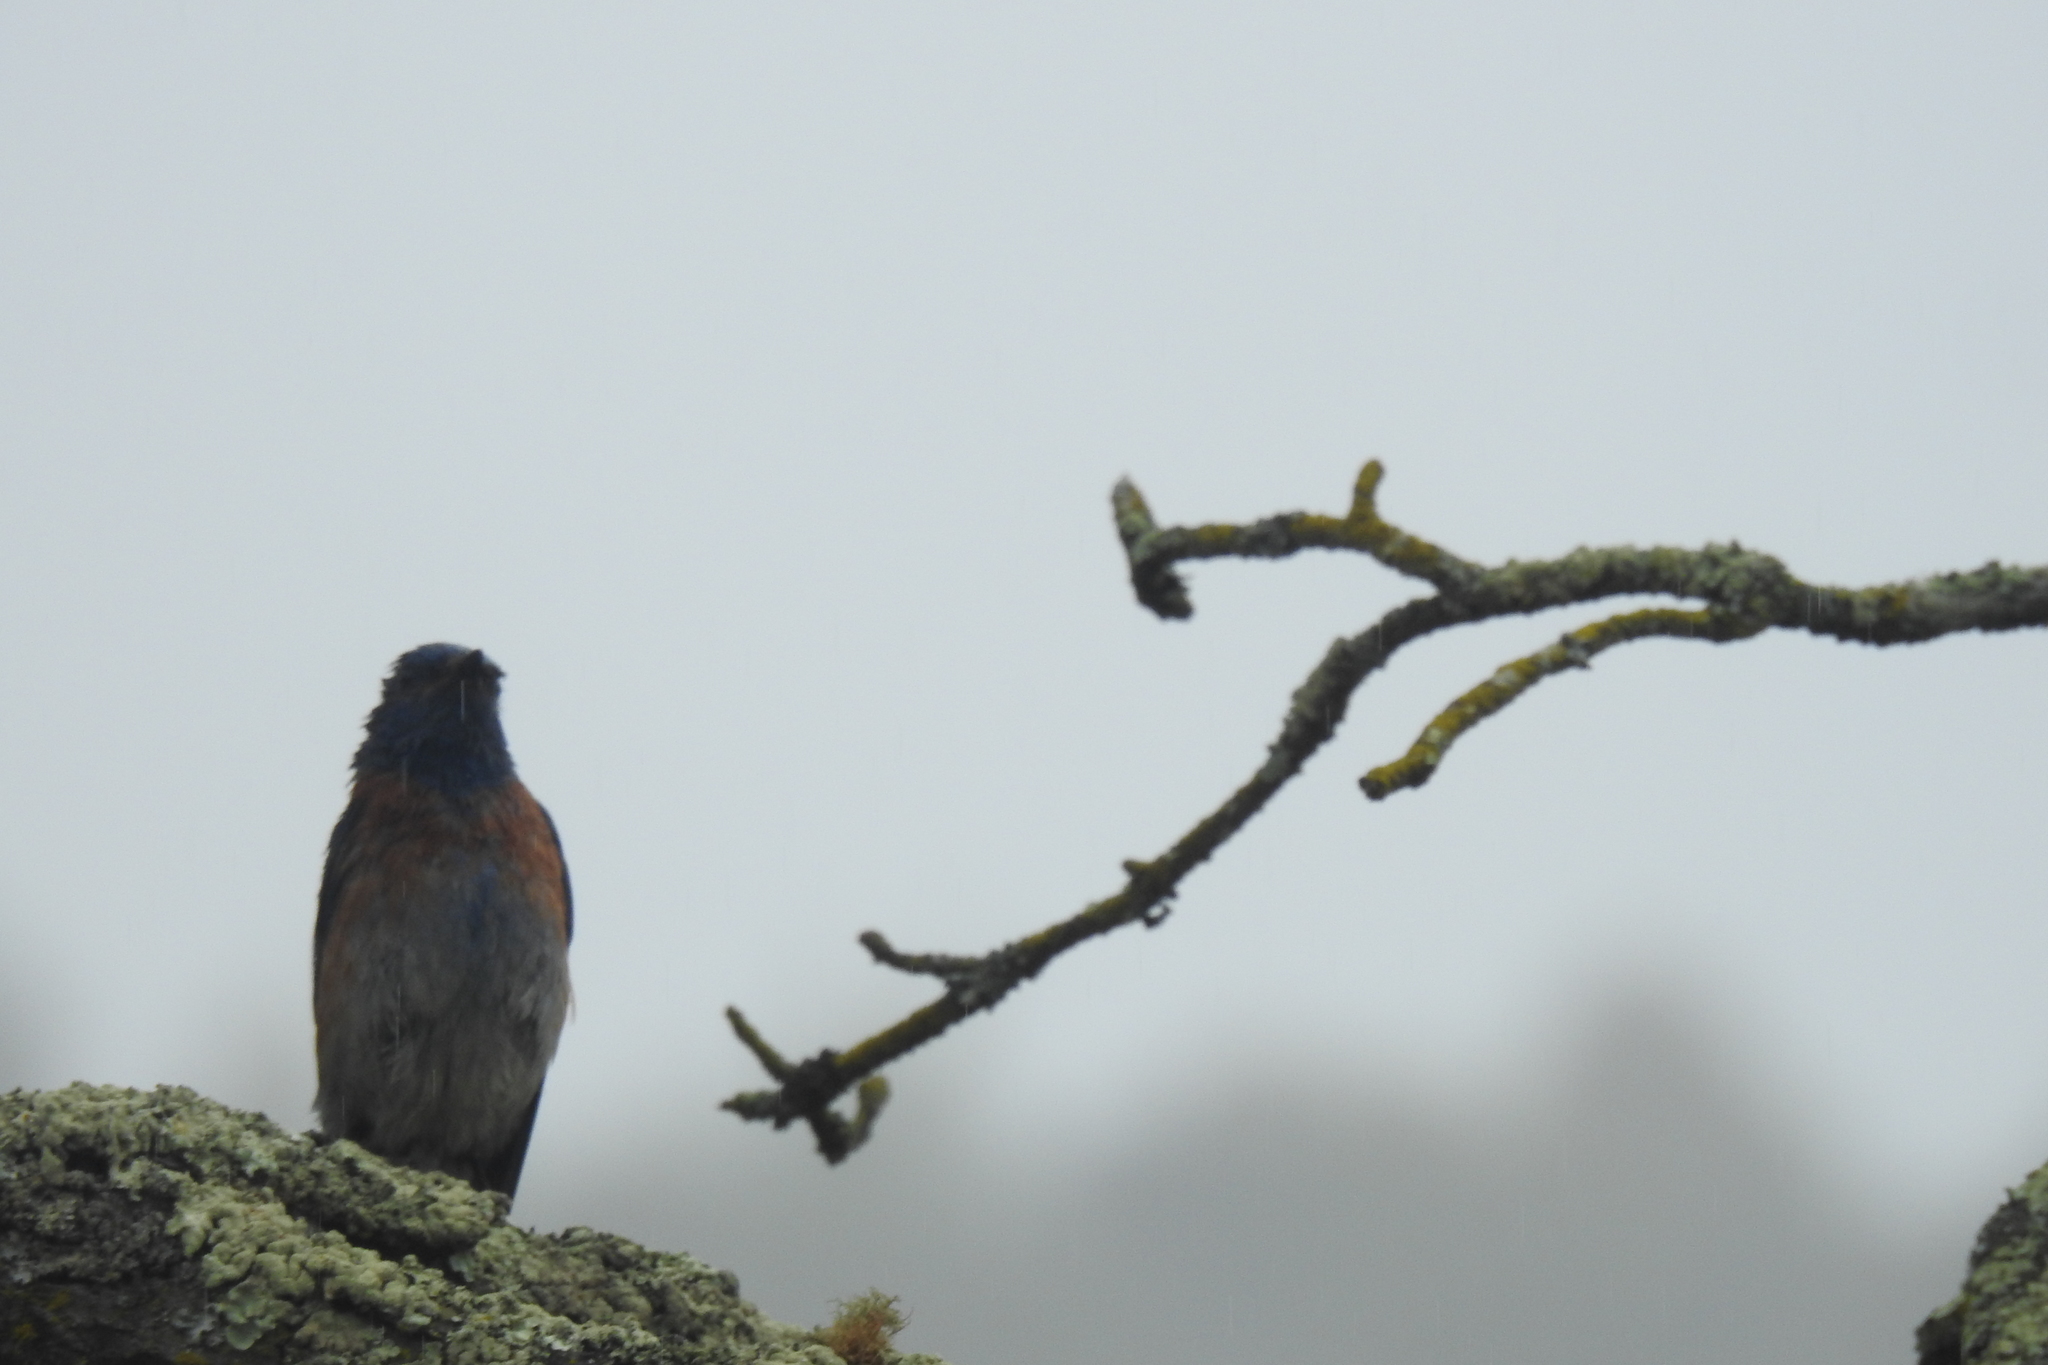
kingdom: Animalia
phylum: Chordata
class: Aves
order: Passeriformes
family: Turdidae
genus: Sialia
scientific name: Sialia mexicana
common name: Western bluebird
